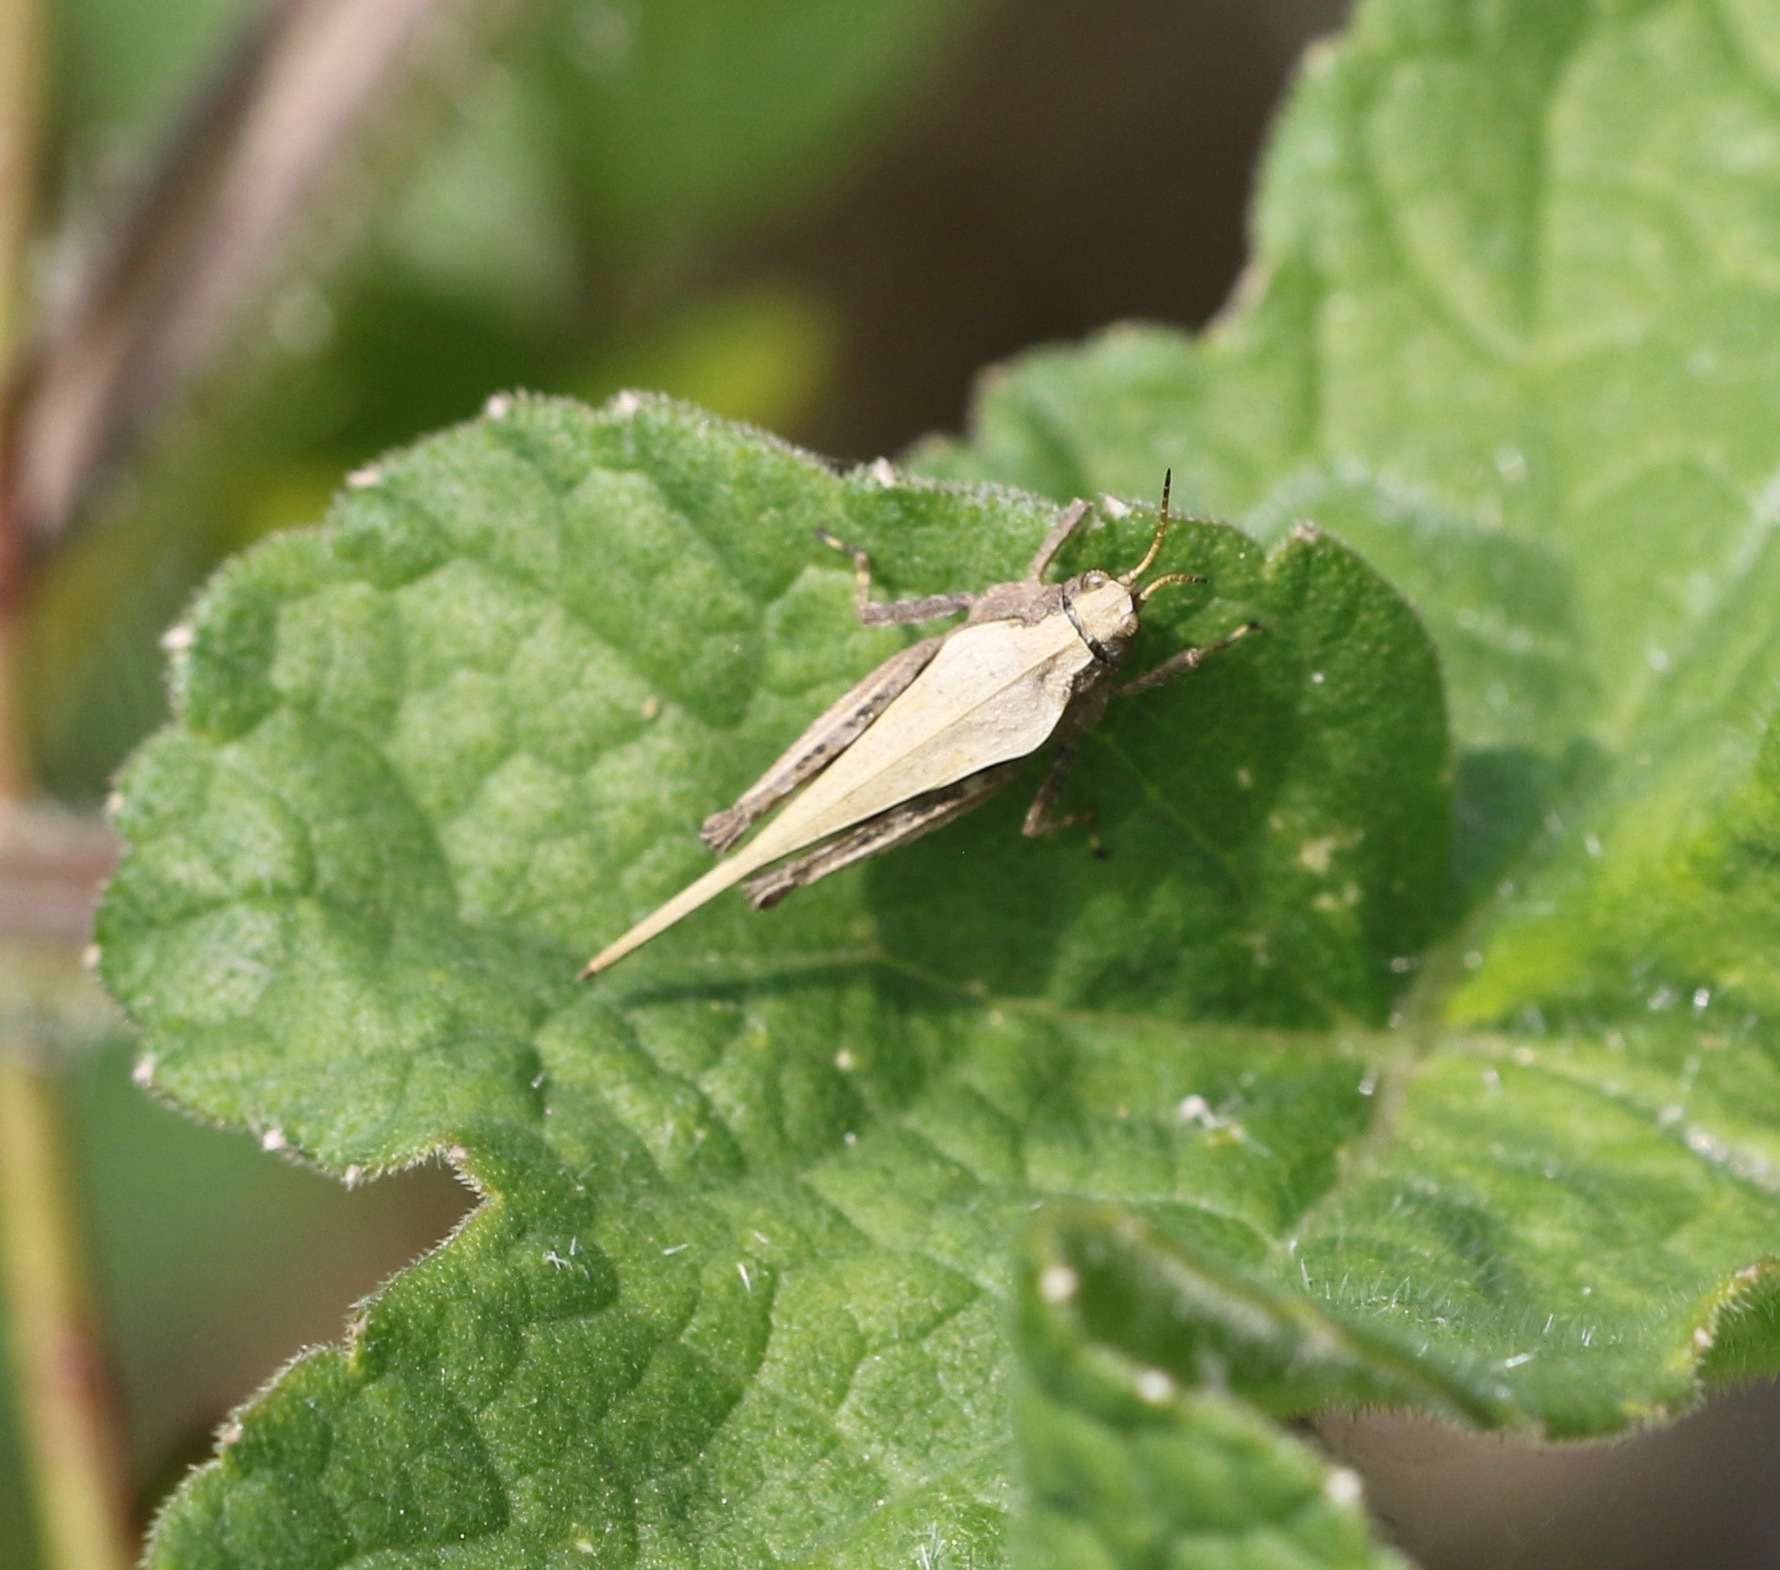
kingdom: Animalia
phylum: Arthropoda
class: Insecta
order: Orthoptera
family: Tetrigidae
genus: Tetrix
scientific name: Tetrix subulata
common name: Slender ground-hopper
